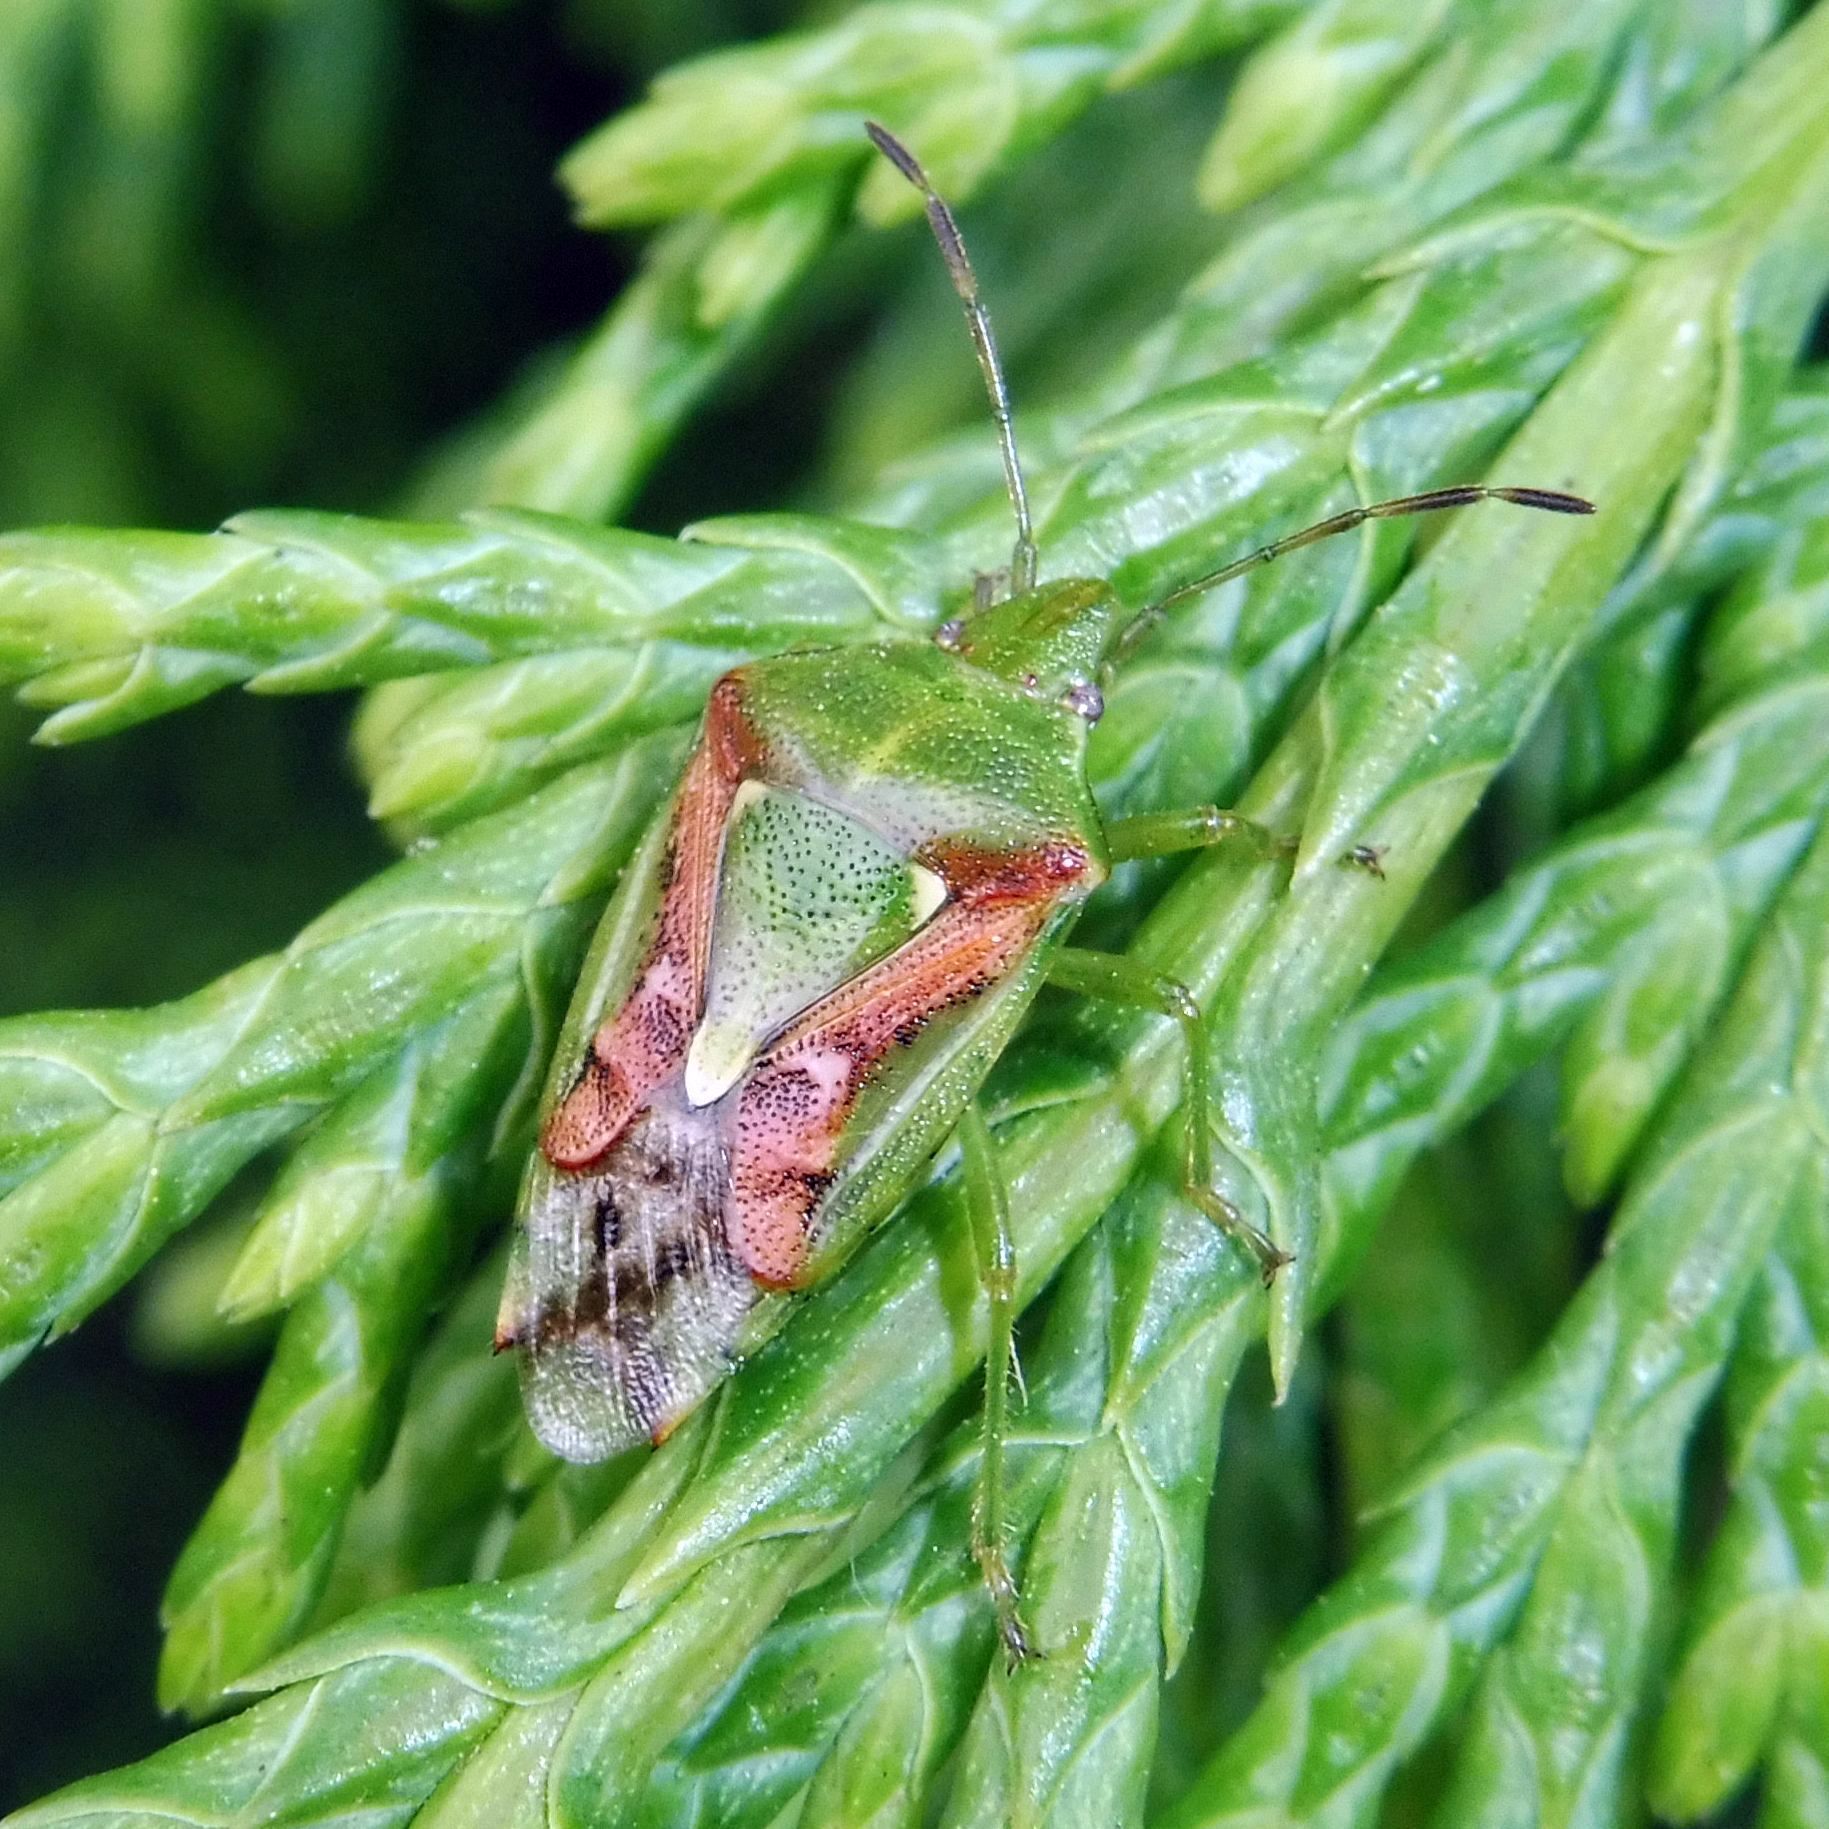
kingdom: Animalia
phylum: Arthropoda
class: Insecta
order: Hemiptera
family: Acanthosomatidae
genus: Cyphostethus
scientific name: Cyphostethus tristriatus
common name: Juniper shieldbug
